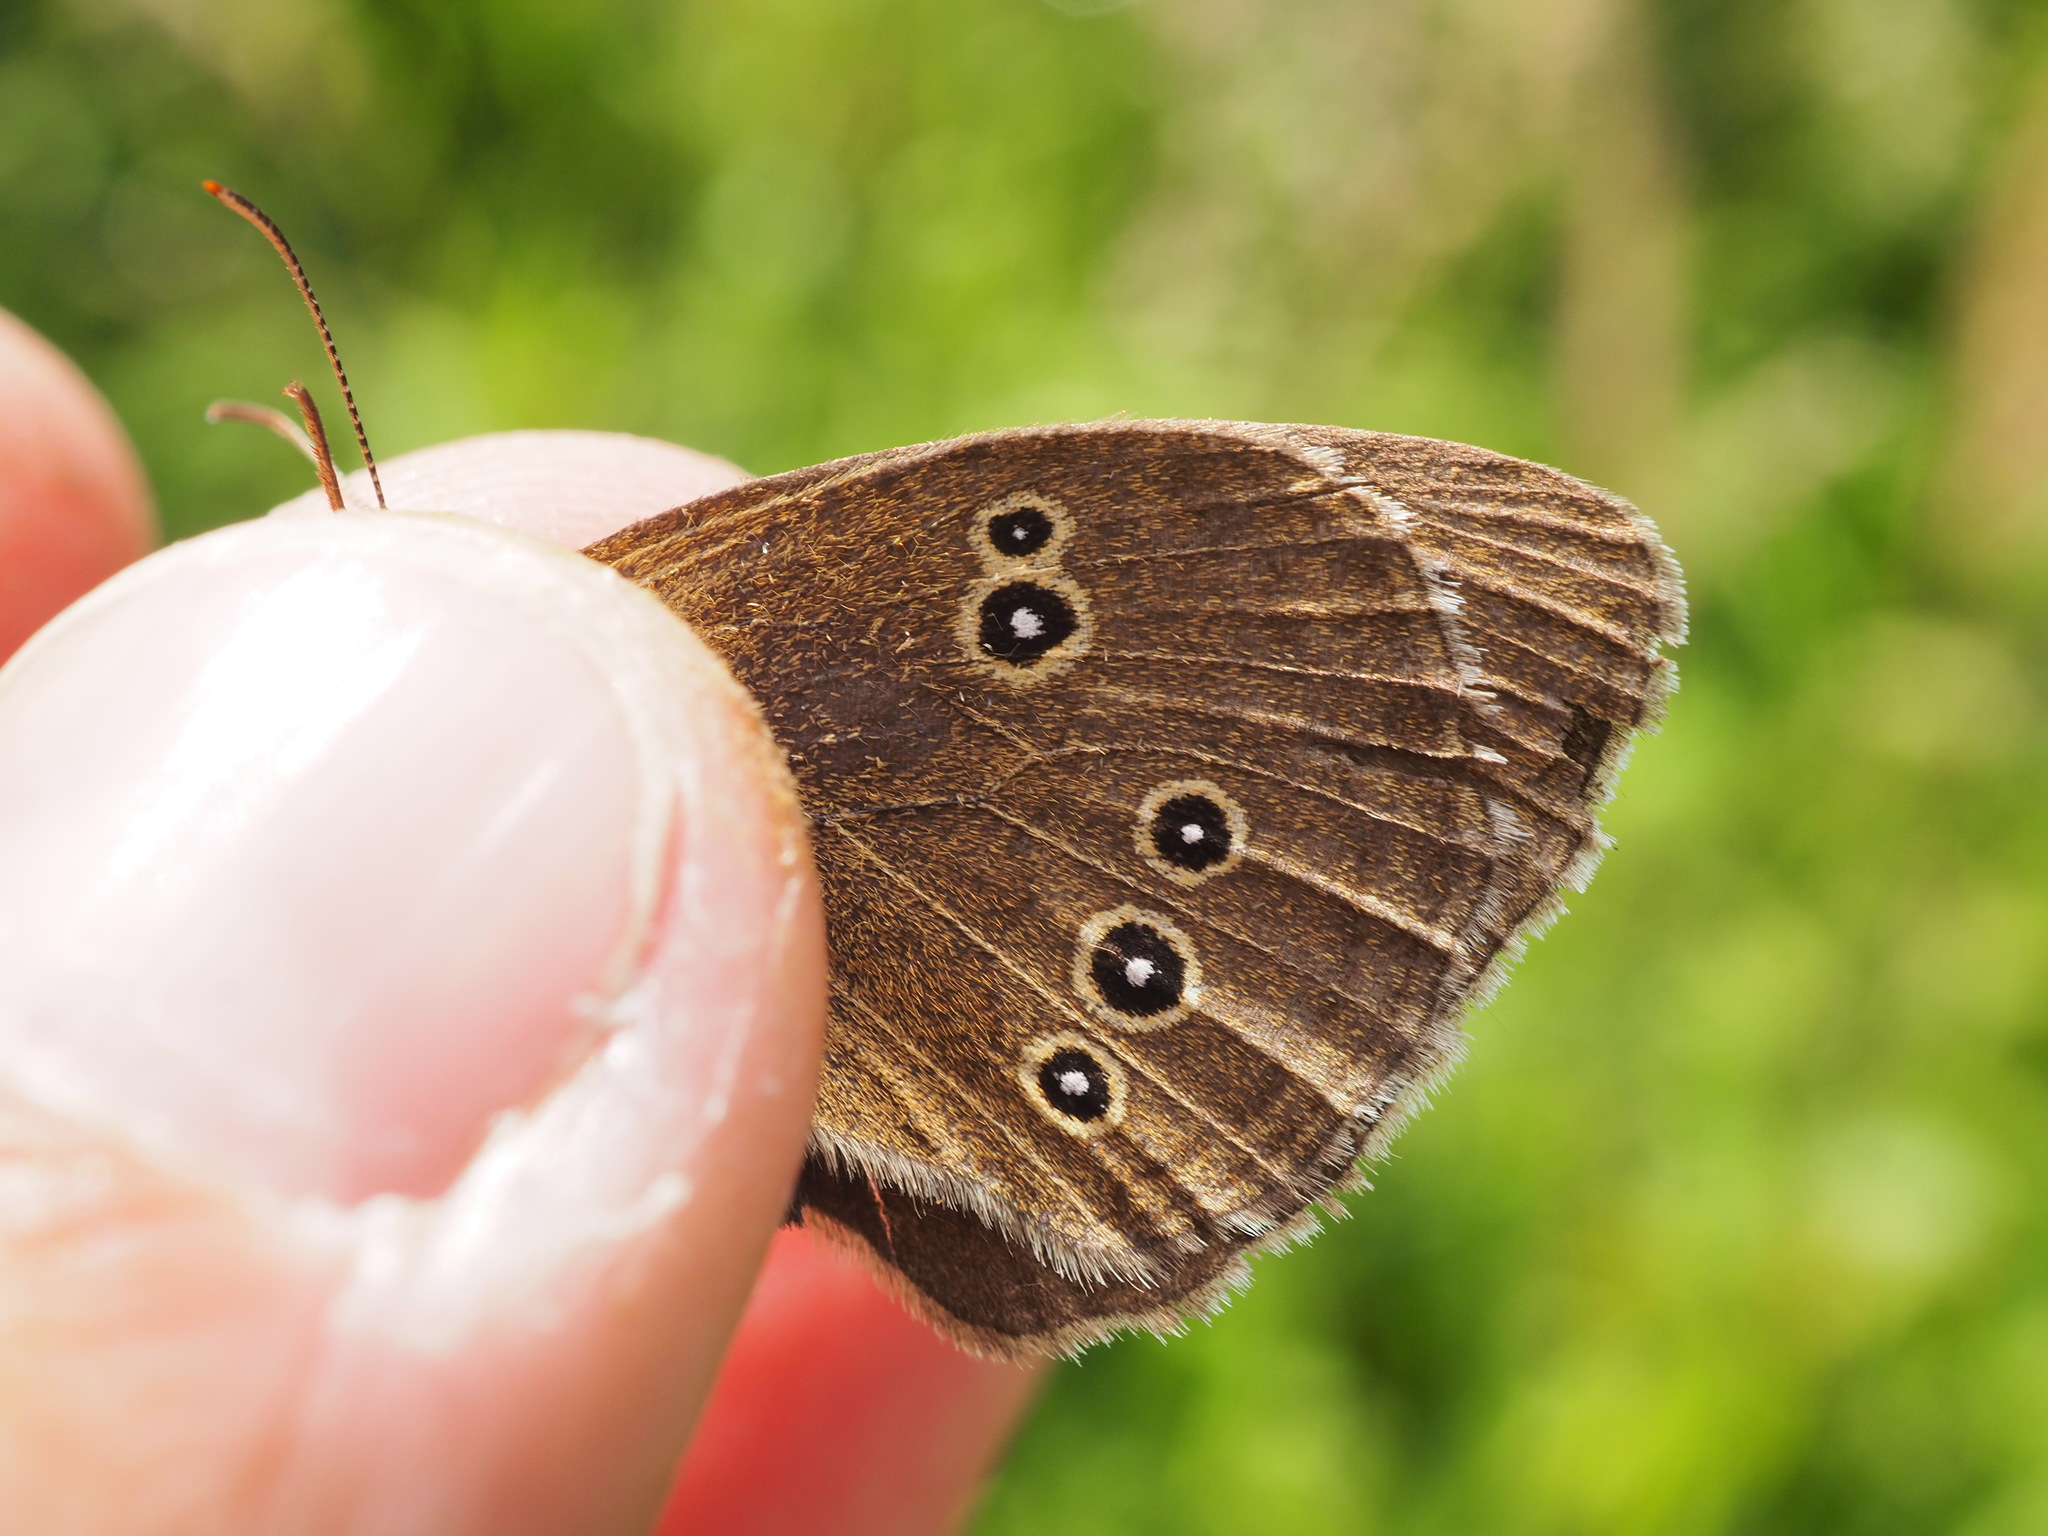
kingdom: Animalia
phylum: Arthropoda
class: Insecta
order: Lepidoptera
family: Nymphalidae
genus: Aphantopus
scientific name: Aphantopus hyperantus
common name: Ringlet
